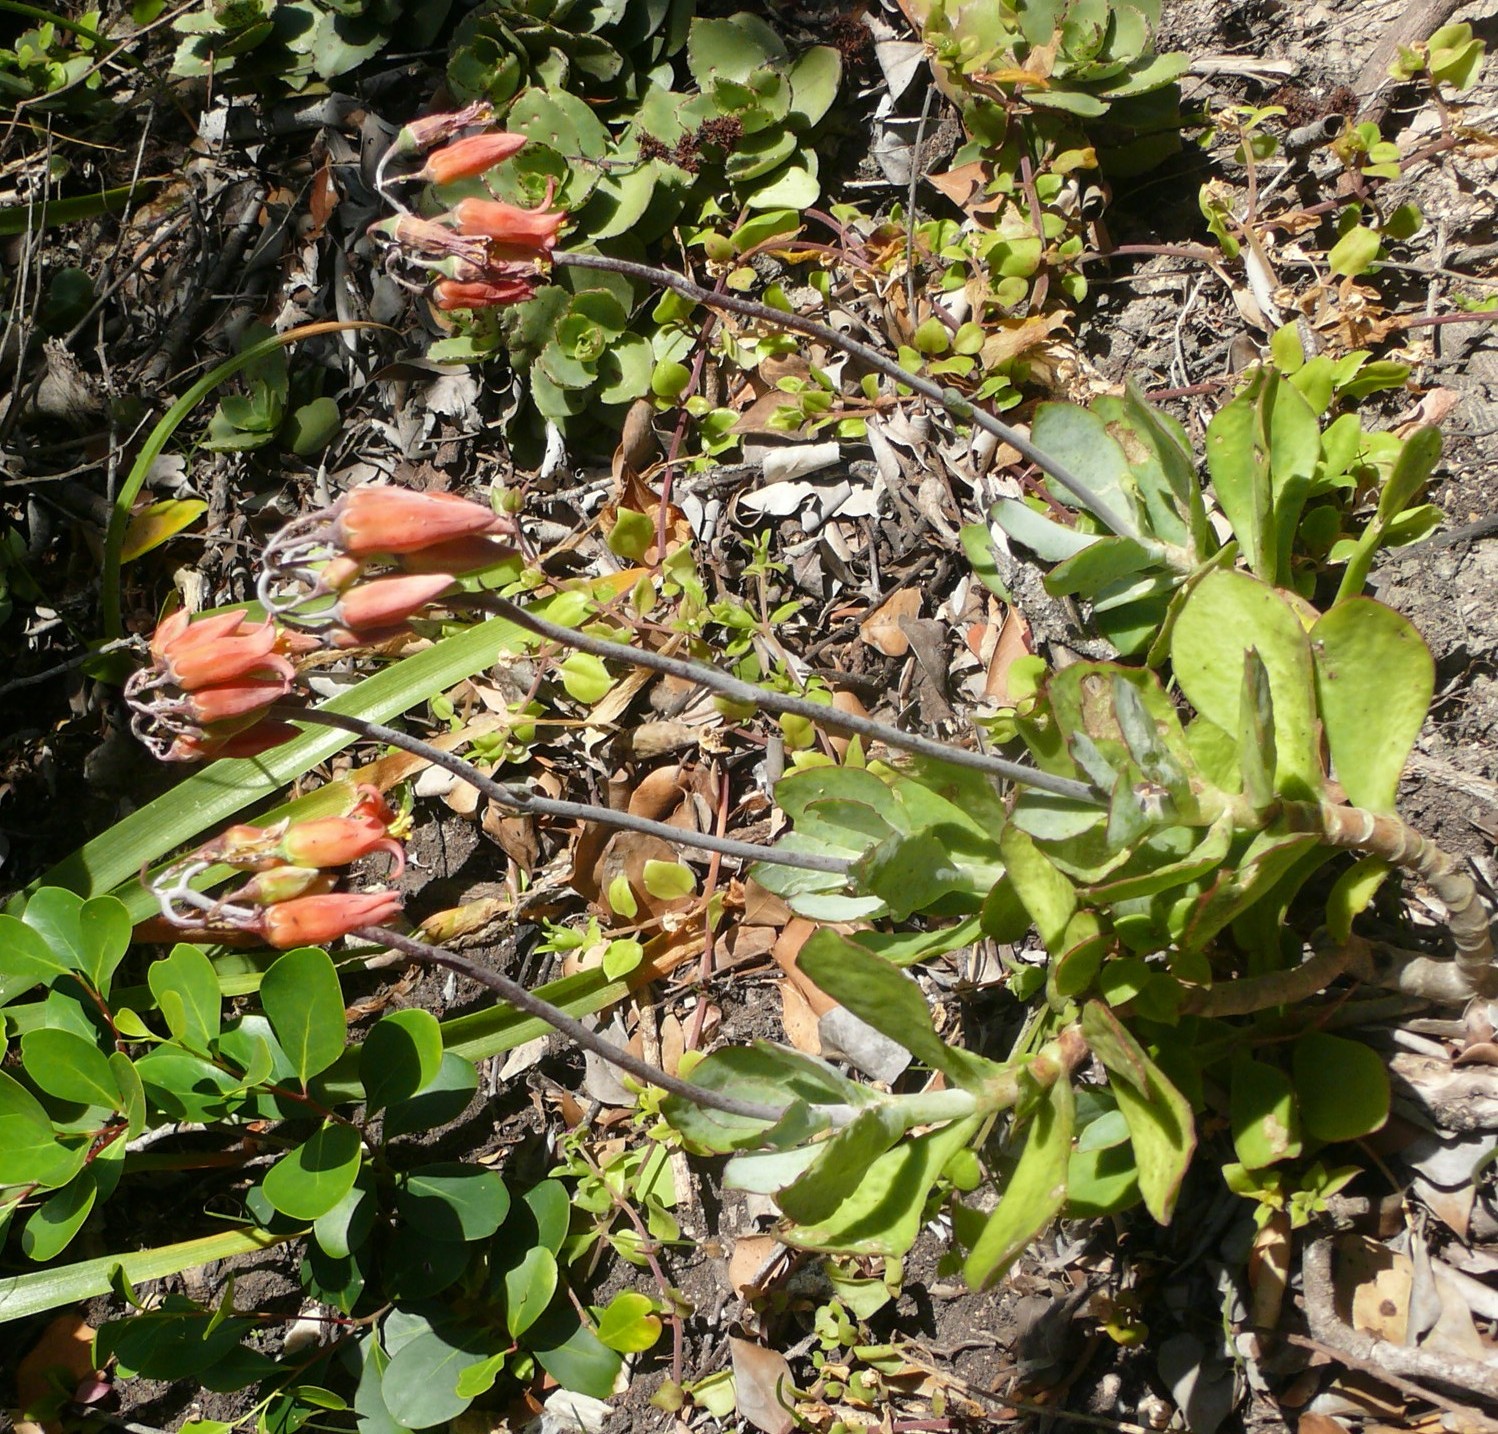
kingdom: Plantae
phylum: Tracheophyta
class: Magnoliopsida
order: Saxifragales
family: Crassulaceae
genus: Cotyledon
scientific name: Cotyledon orbiculata
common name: Pig's ear
